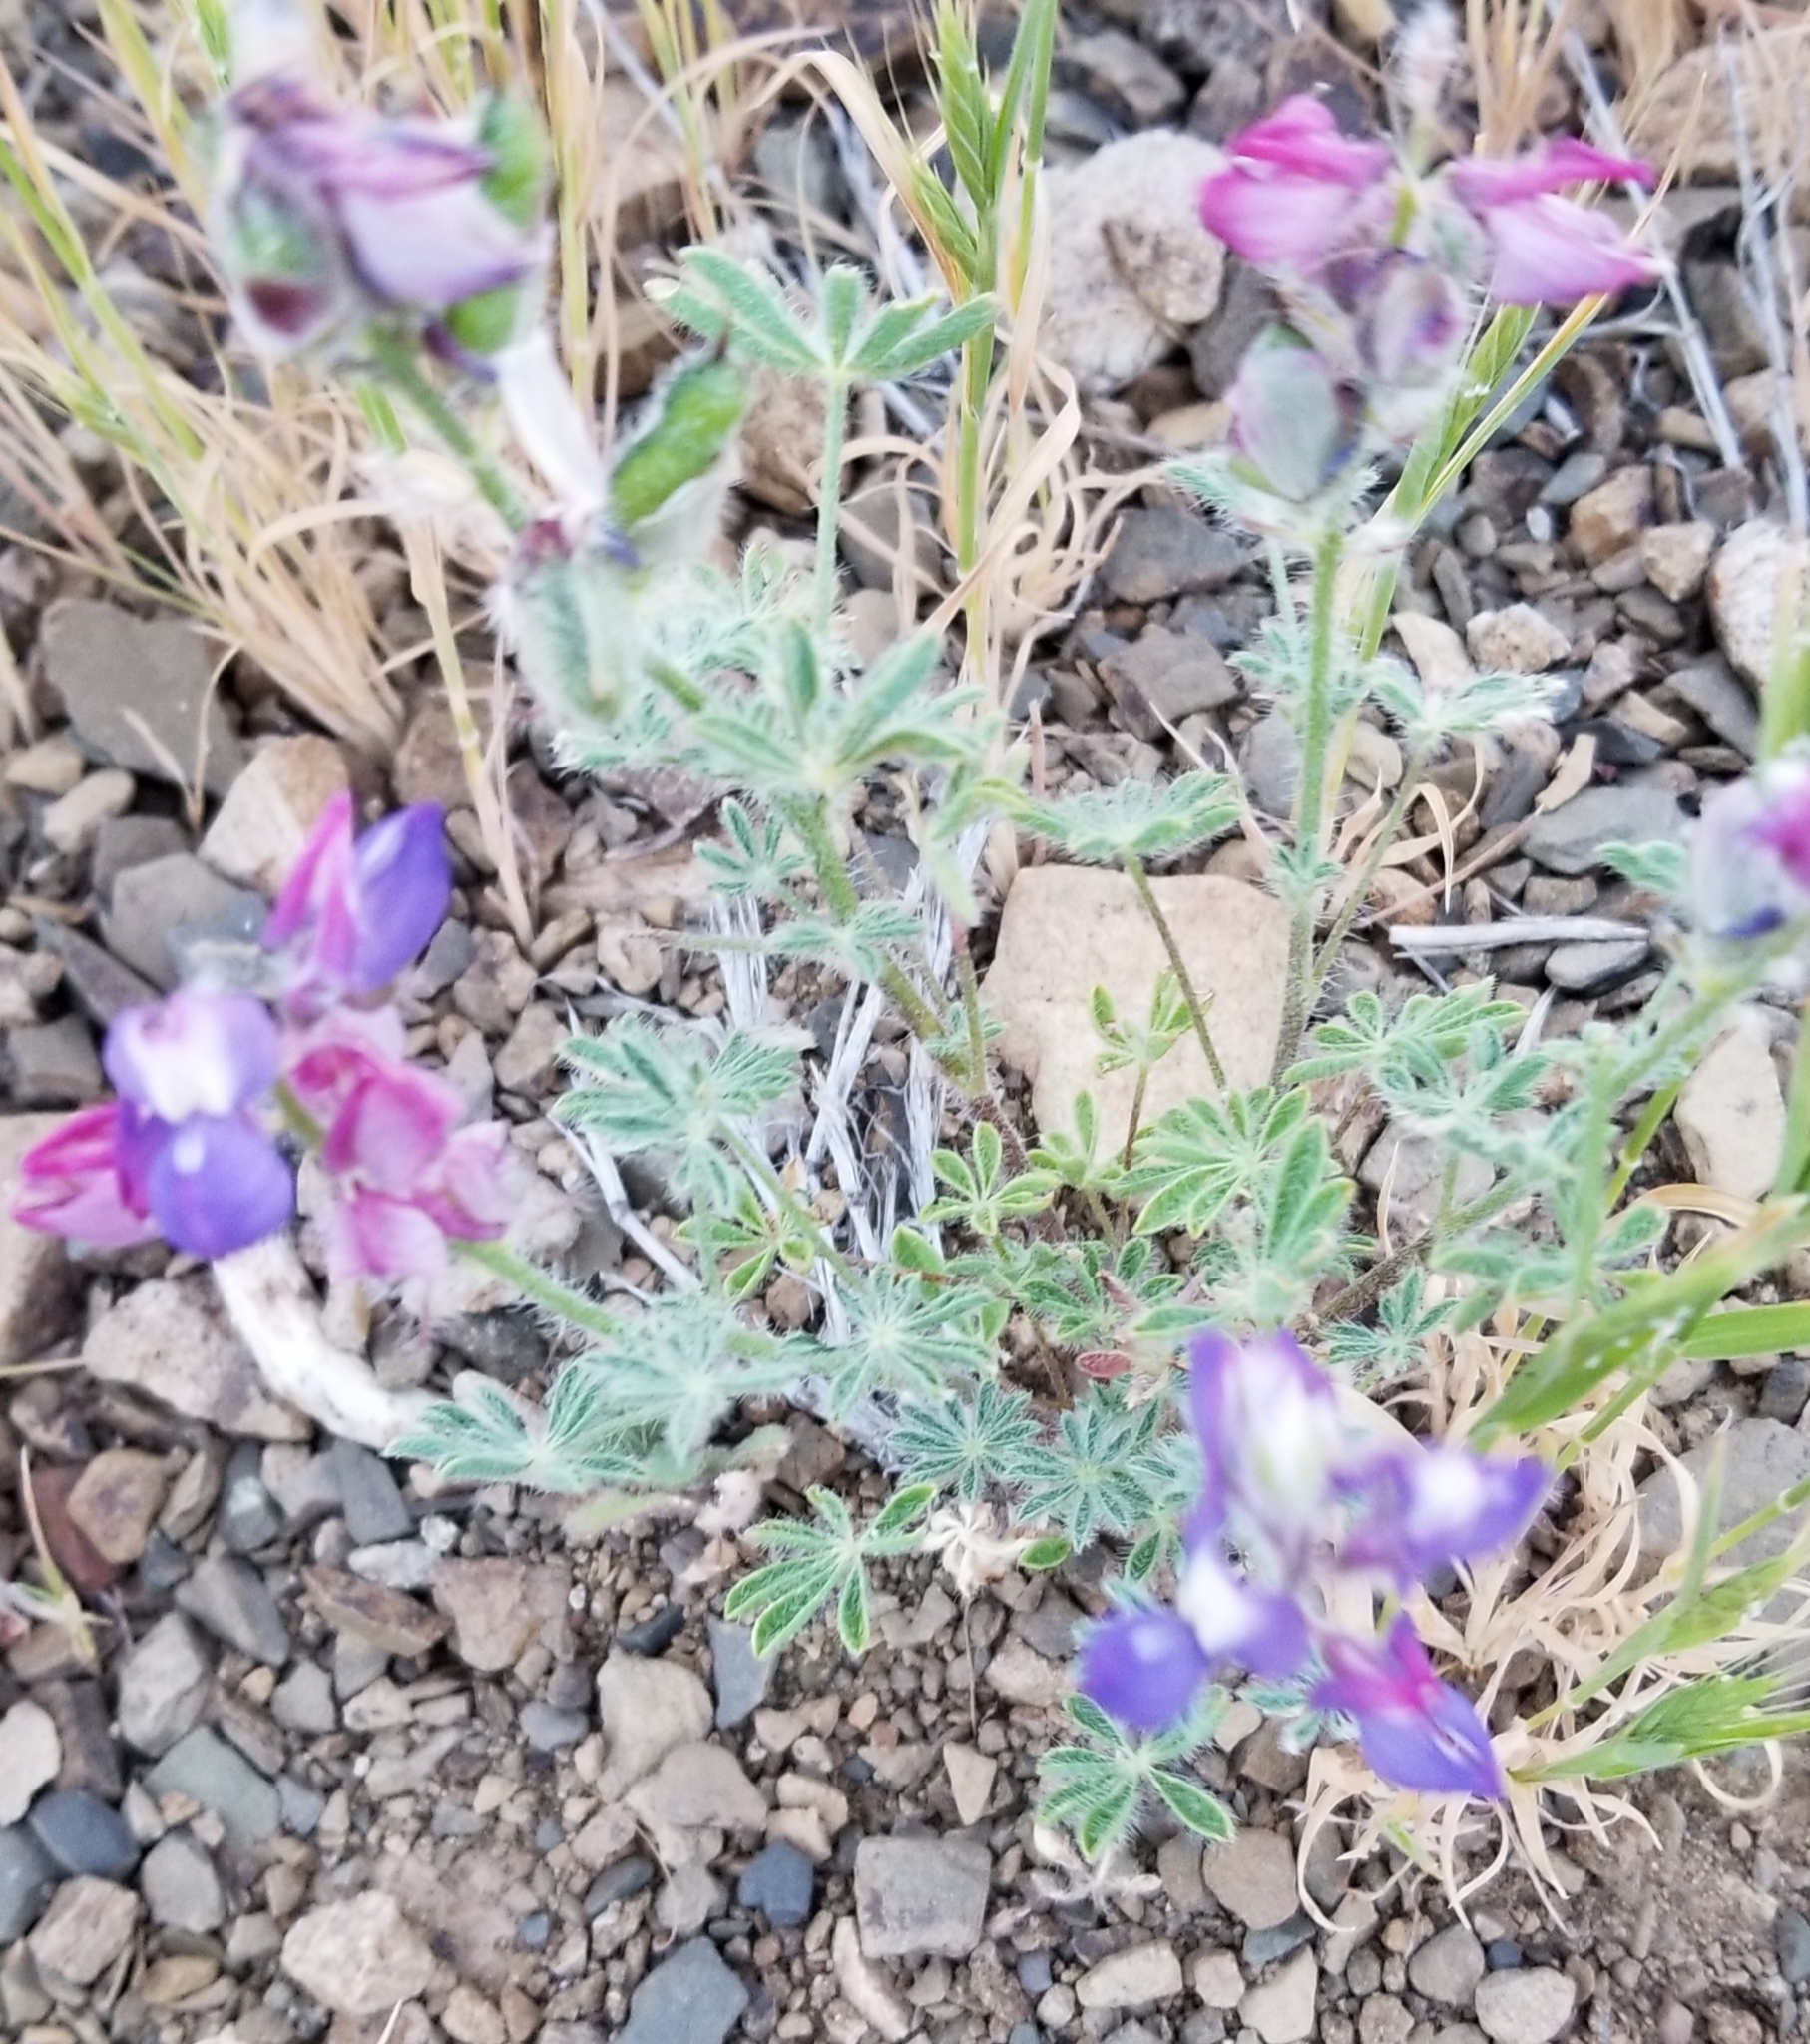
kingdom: Plantae
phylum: Tracheophyta
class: Magnoliopsida
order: Fabales
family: Fabaceae
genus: Lupinus
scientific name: Lupinus hirsutissimus
